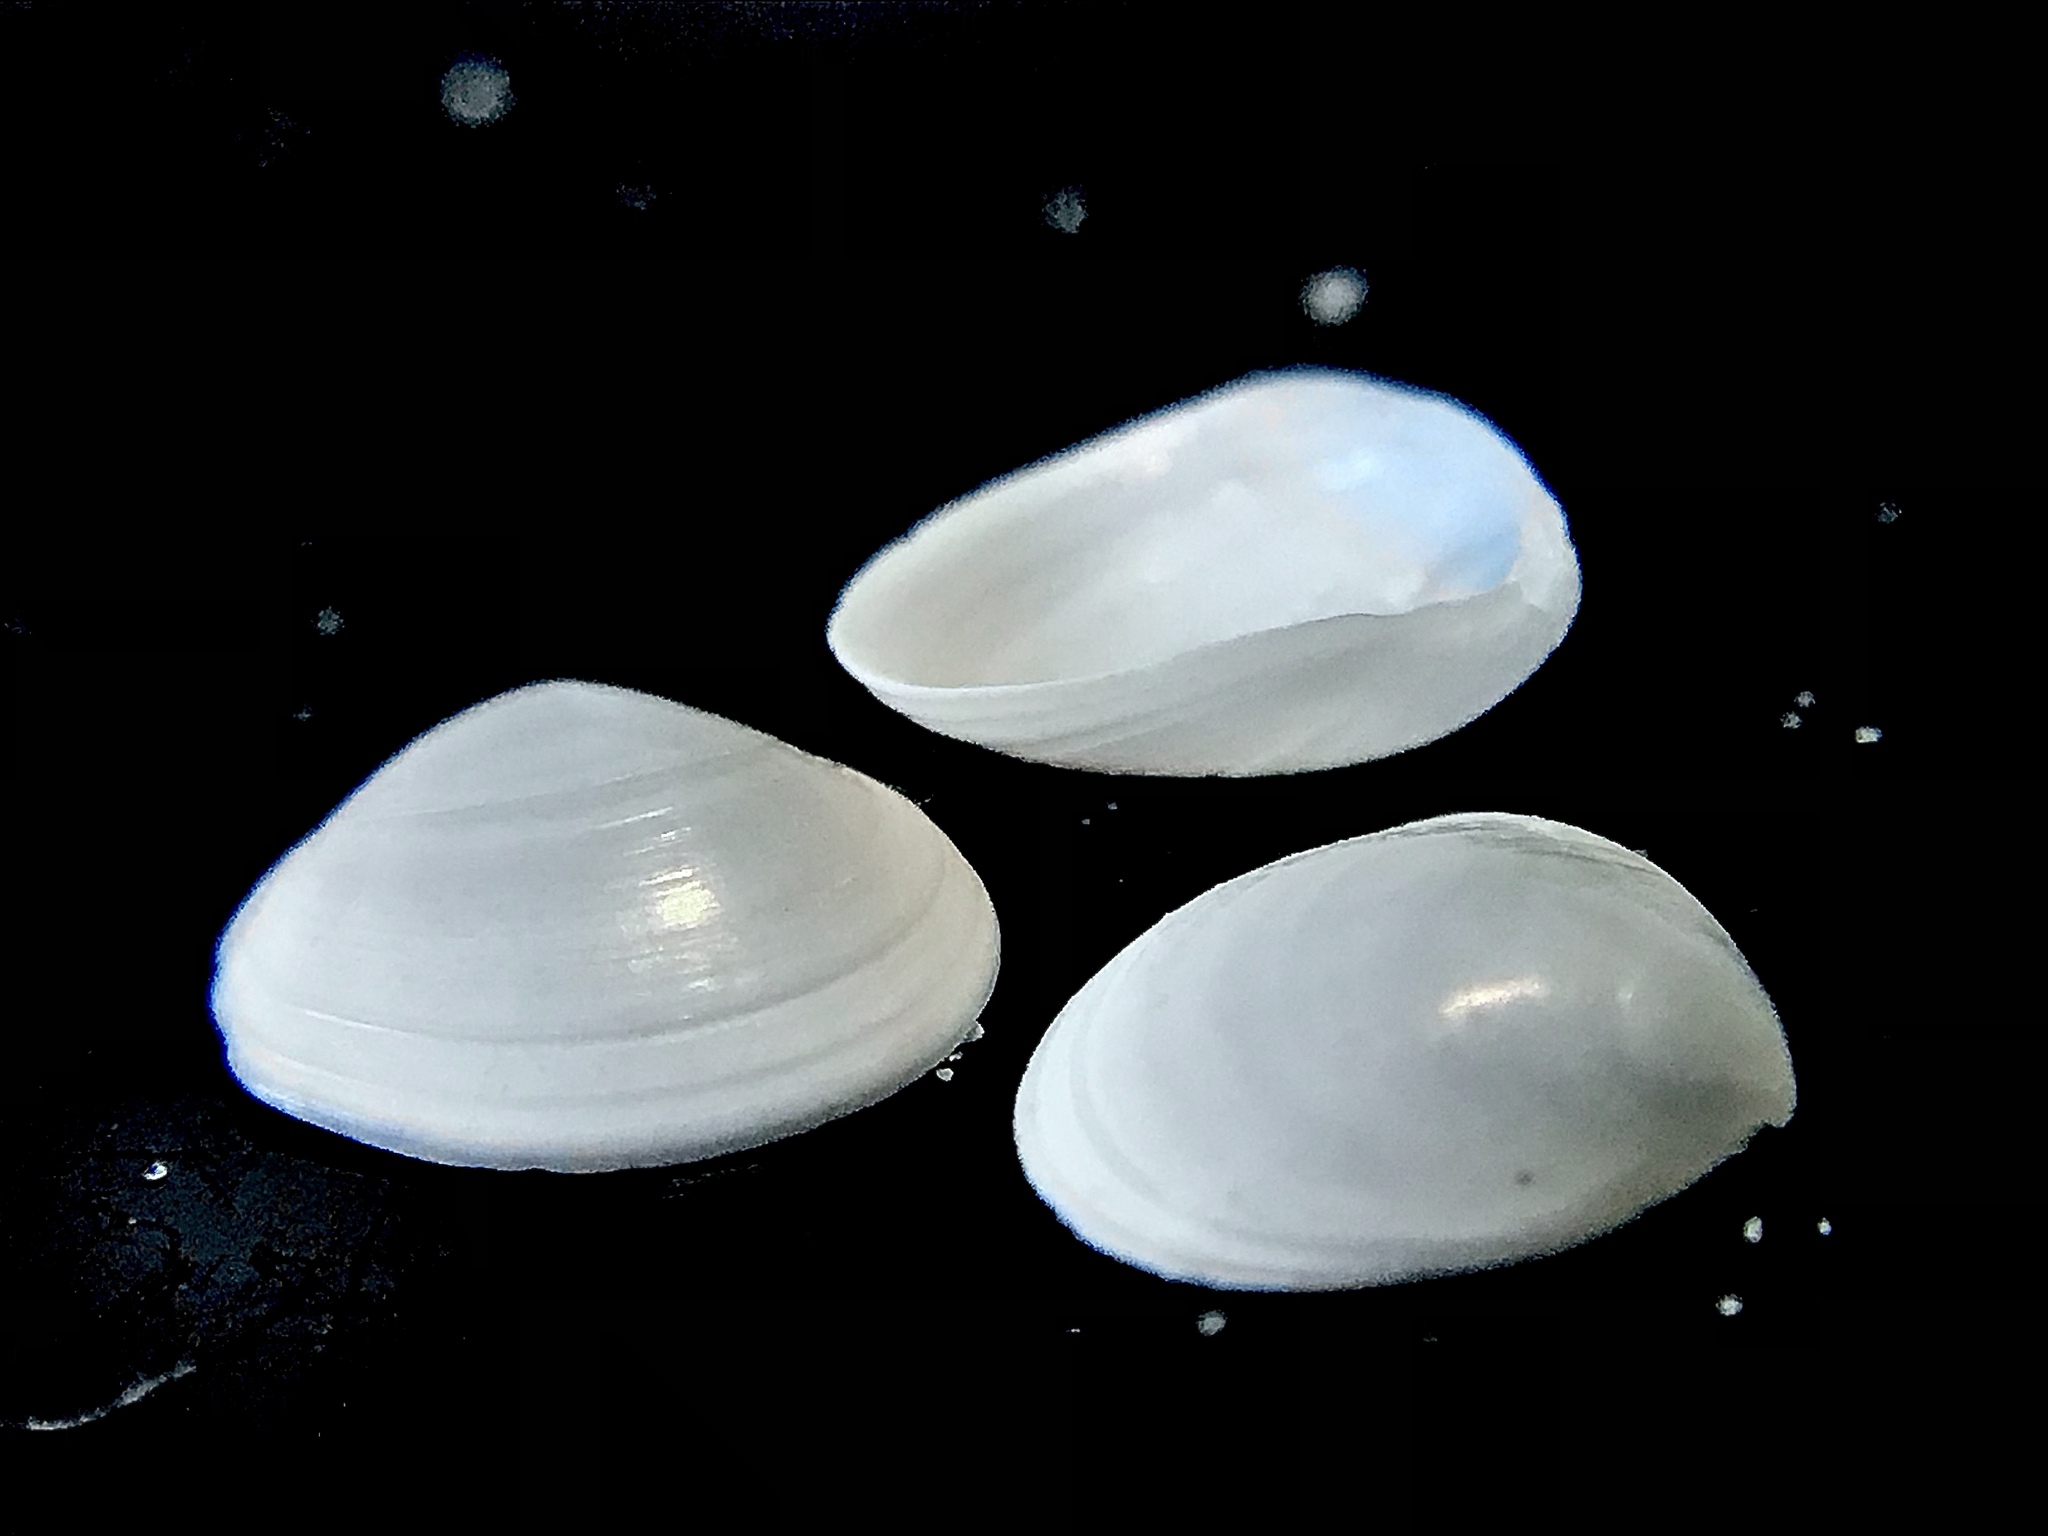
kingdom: Animalia
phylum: Mollusca
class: Bivalvia
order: Cardiida
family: Semelidae
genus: Abra
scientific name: Abra aequalis
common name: Common atlantic abra
